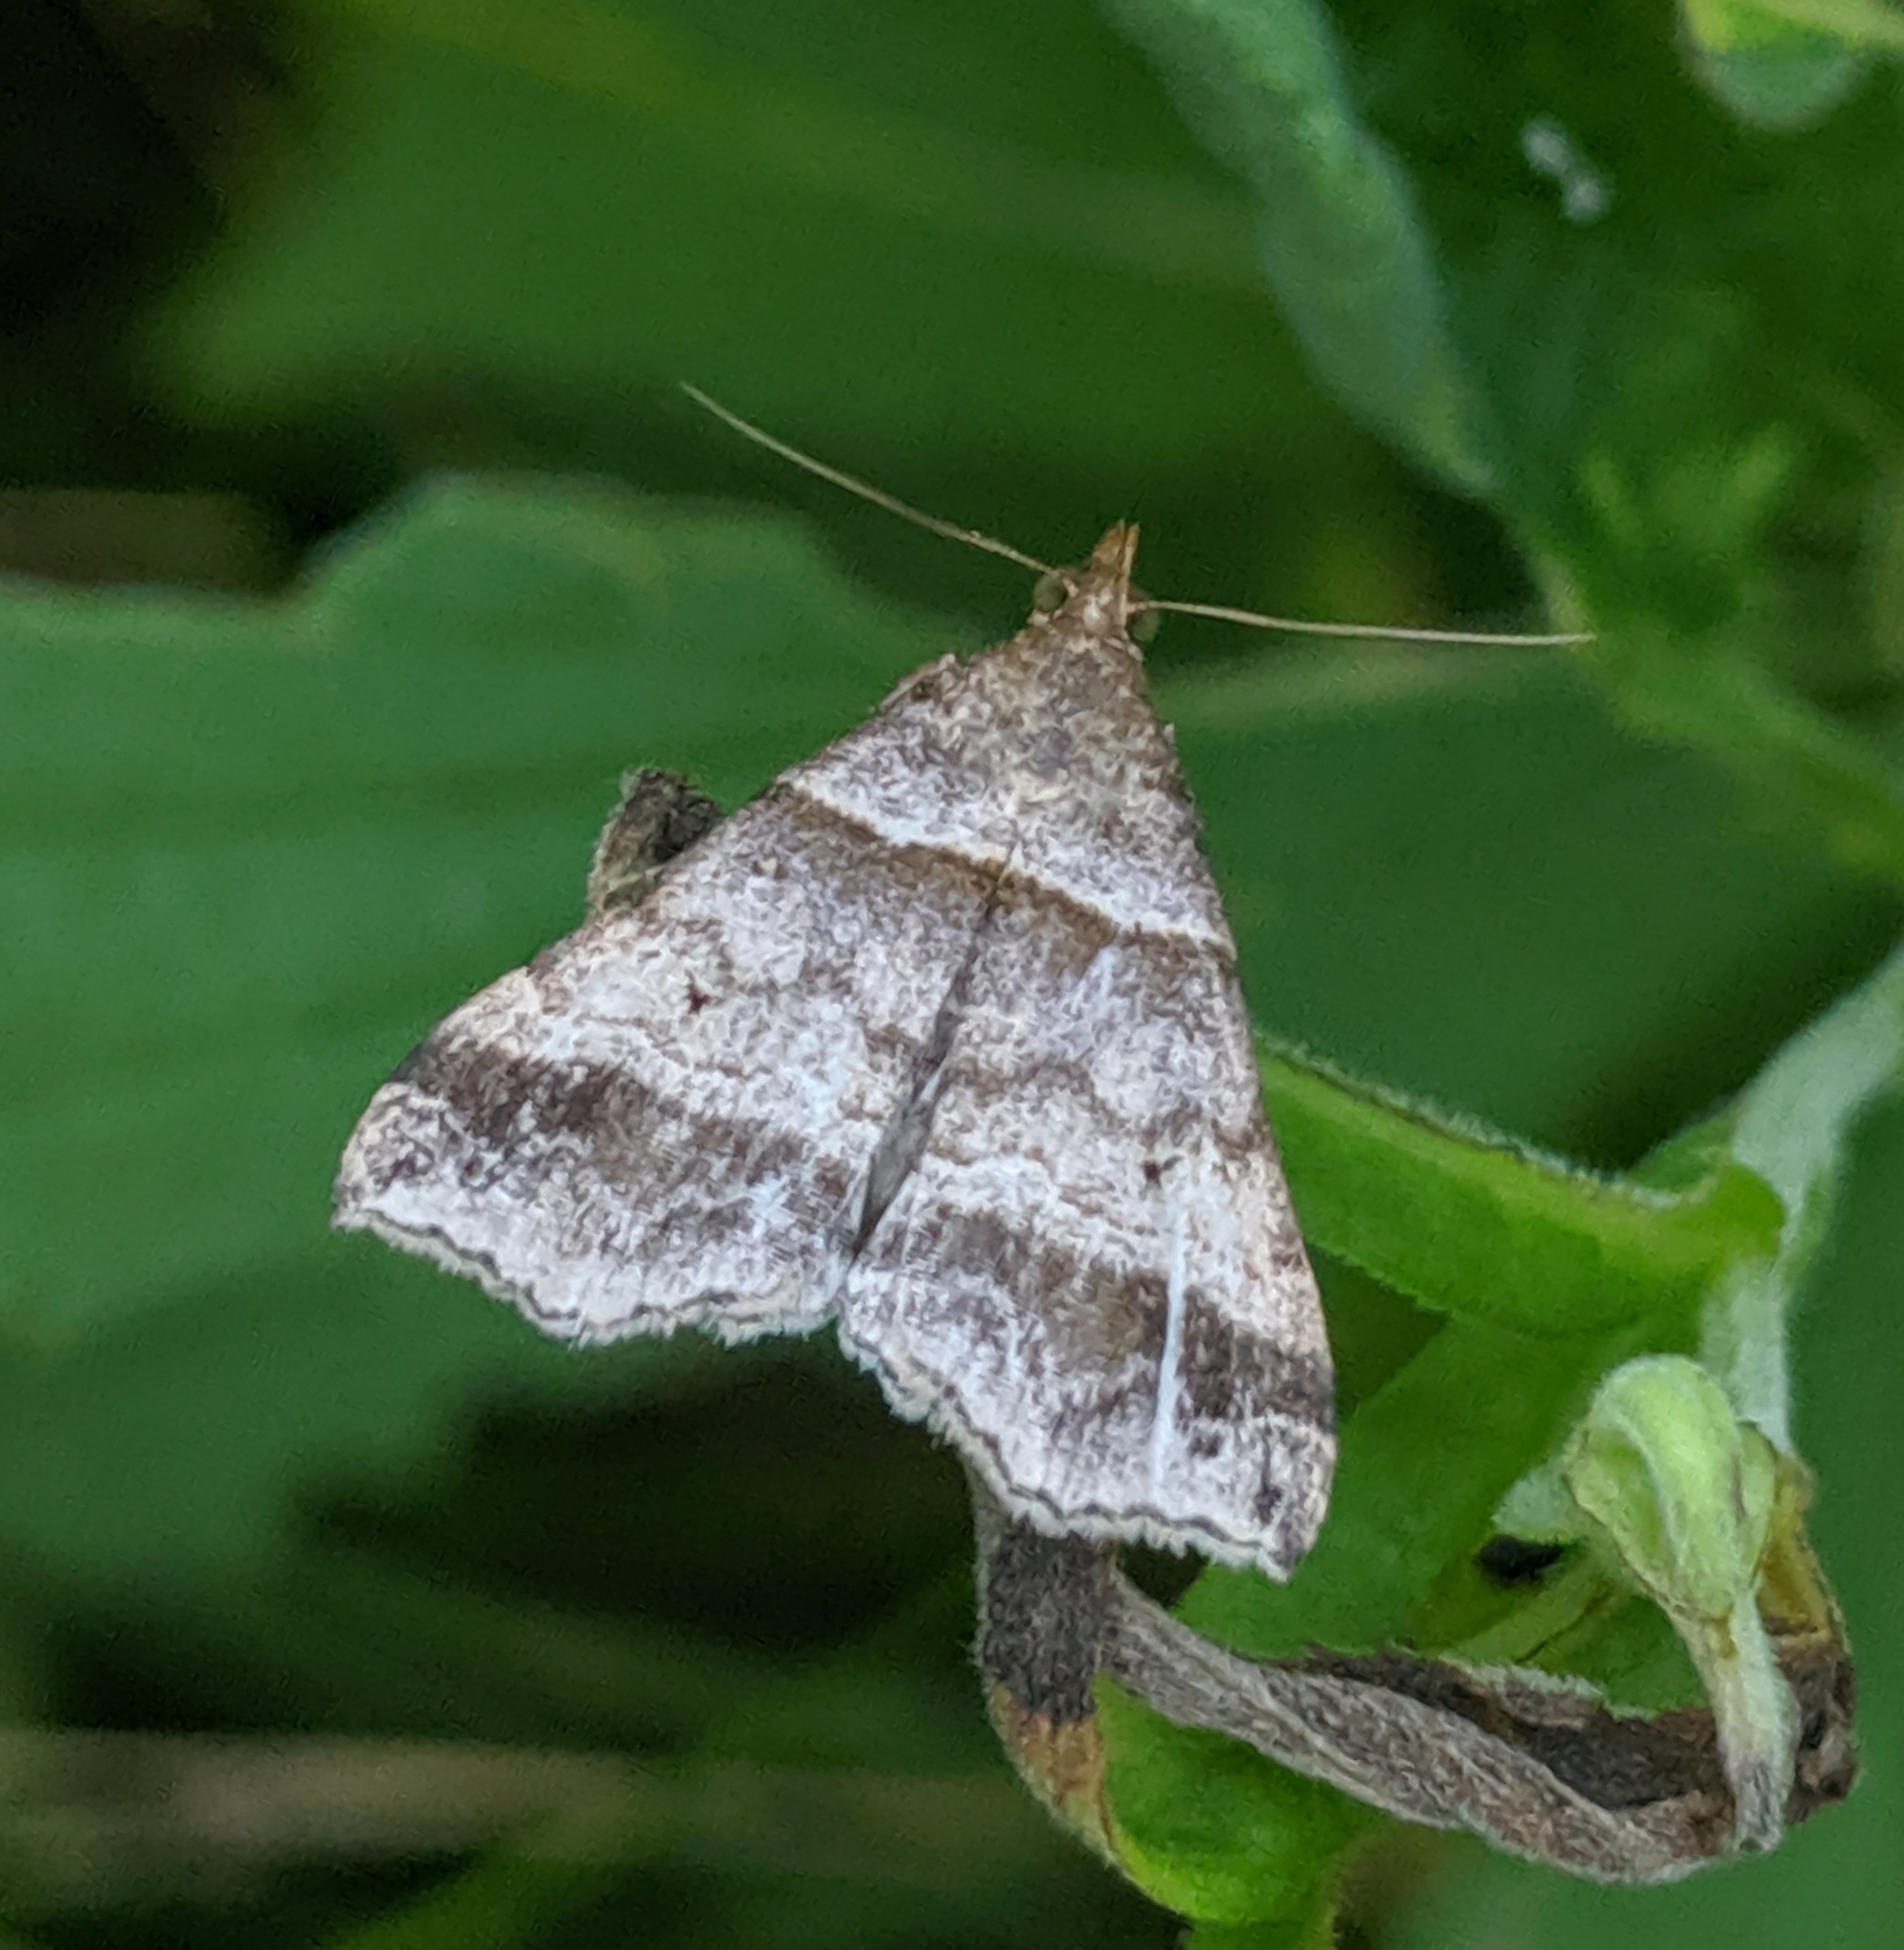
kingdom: Animalia
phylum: Arthropoda
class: Insecta
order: Lepidoptera
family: Erebidae
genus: Phaeolita
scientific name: Phaeolita pyramusalis
